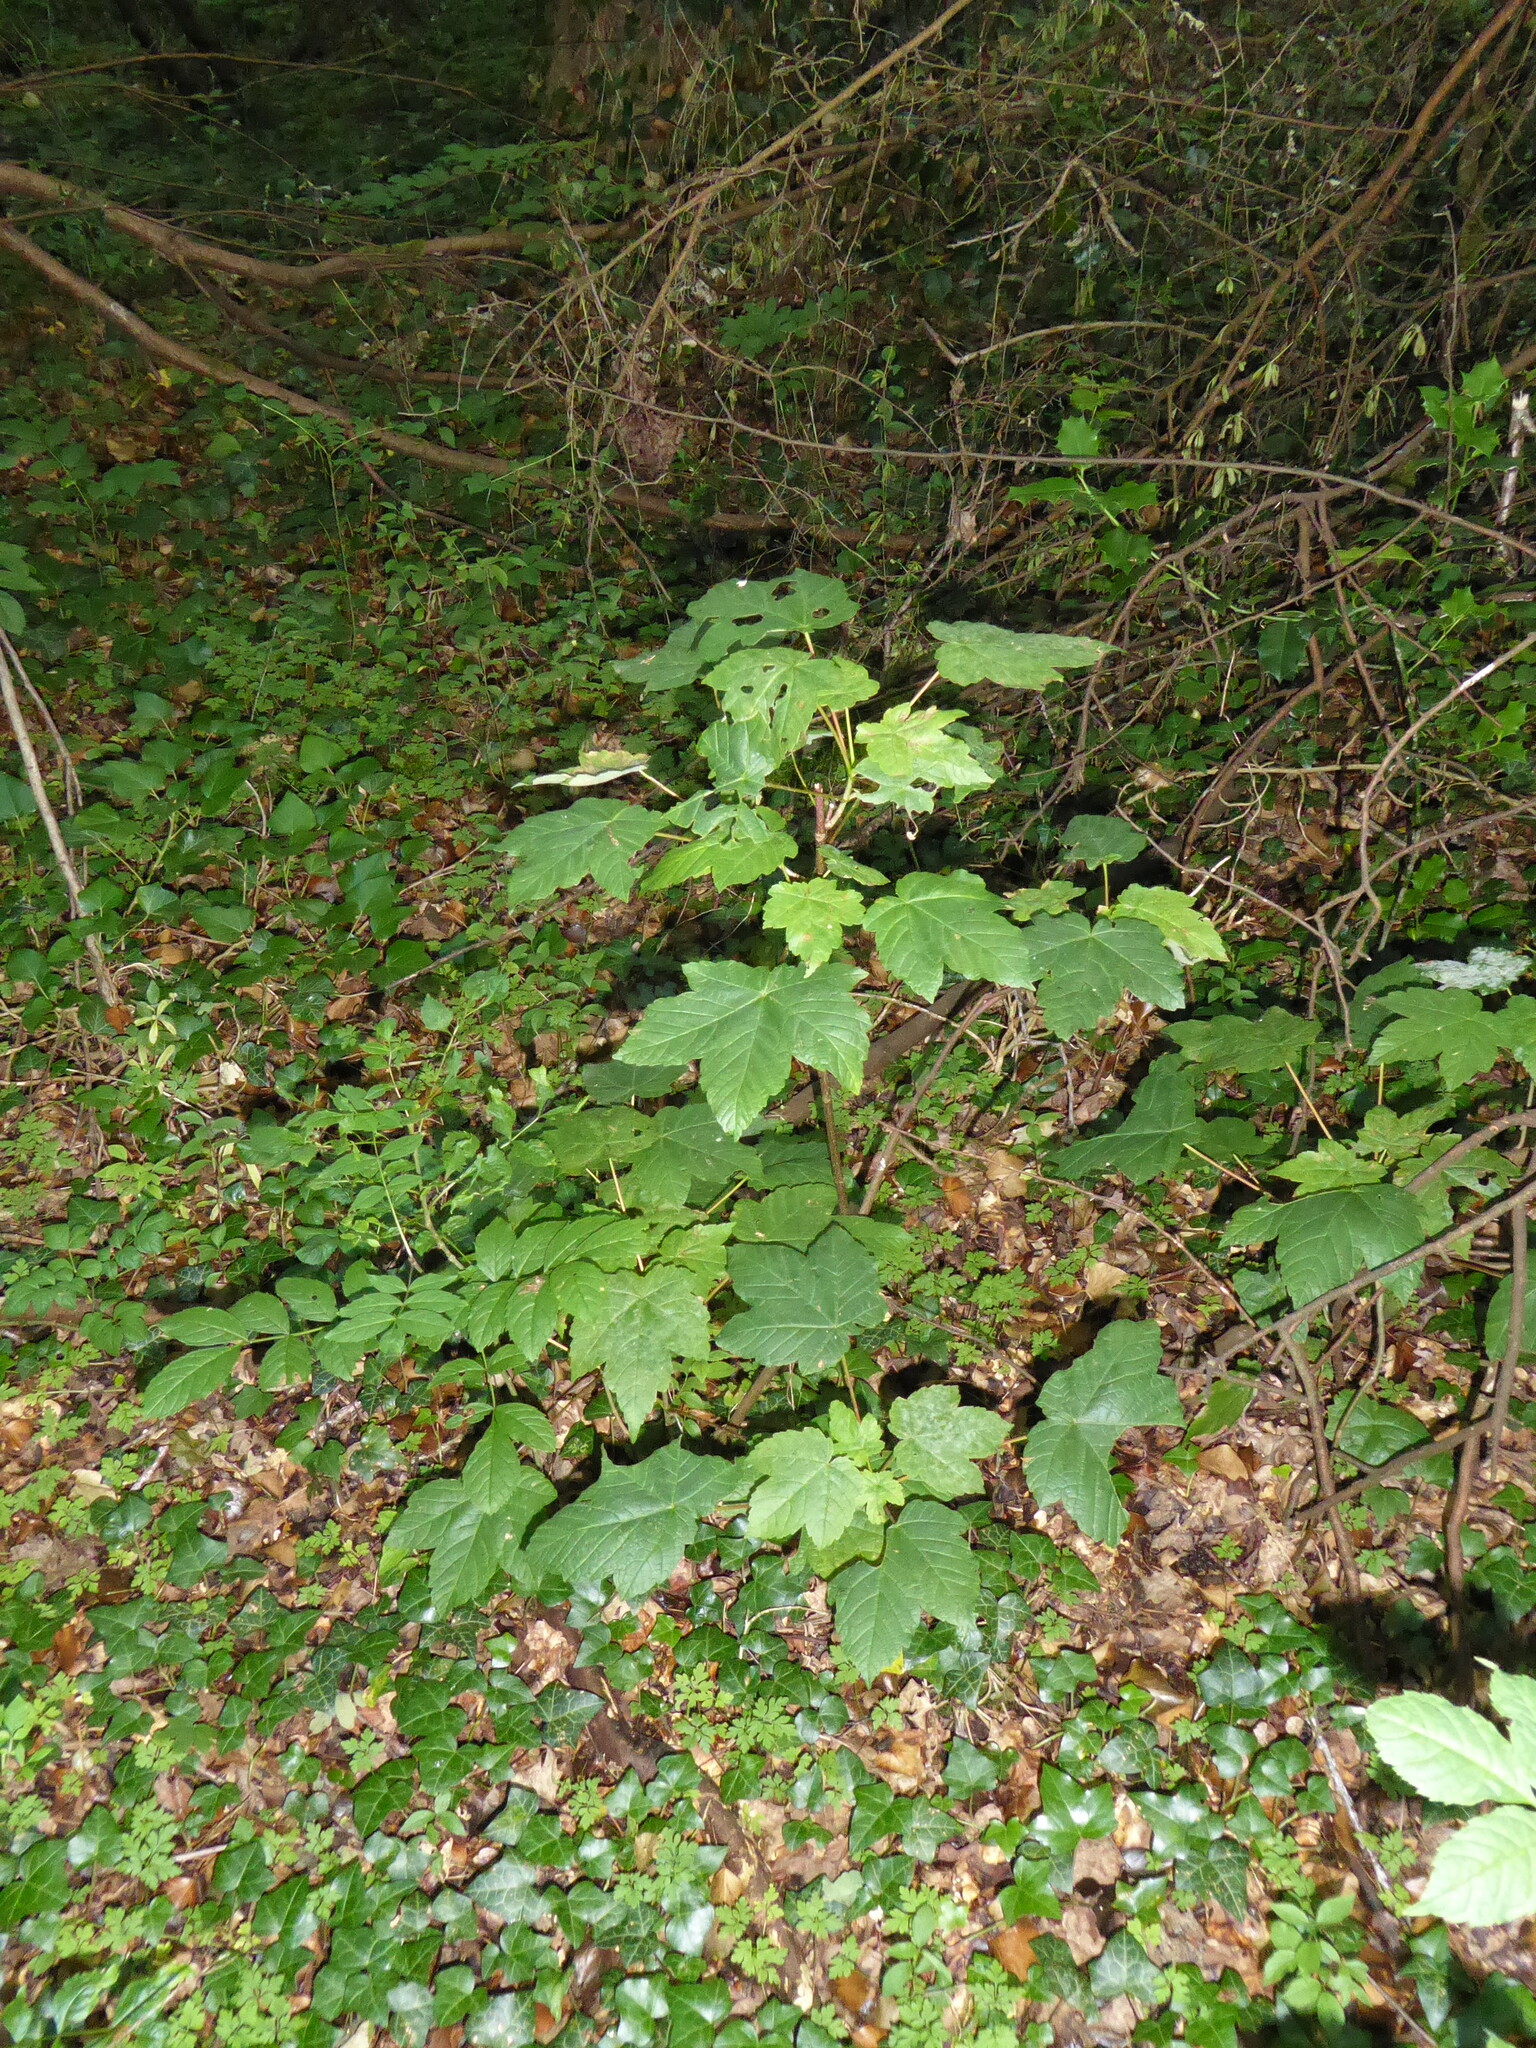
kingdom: Plantae
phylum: Tracheophyta
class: Magnoliopsida
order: Sapindales
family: Sapindaceae
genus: Acer
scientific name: Acer pseudoplatanus
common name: Sycamore
